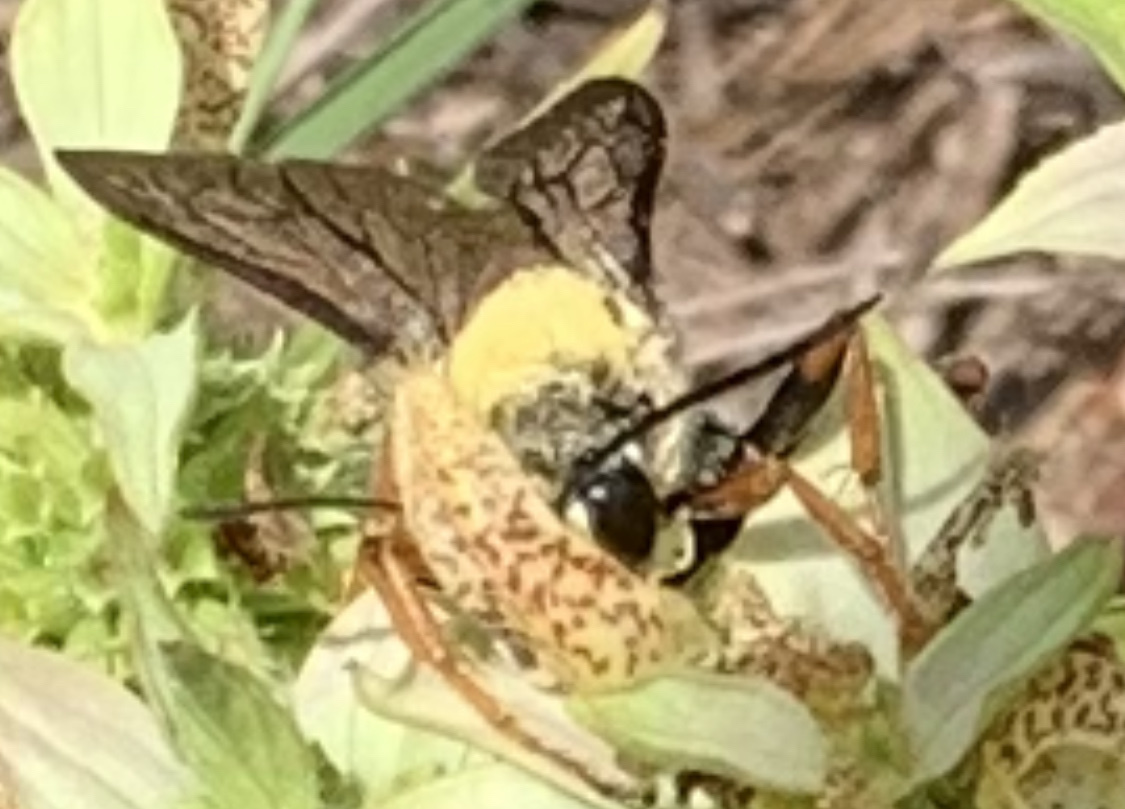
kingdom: Animalia
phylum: Arthropoda
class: Insecta
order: Hymenoptera
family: Sphecidae
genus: Sphex
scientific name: Sphex nudus
